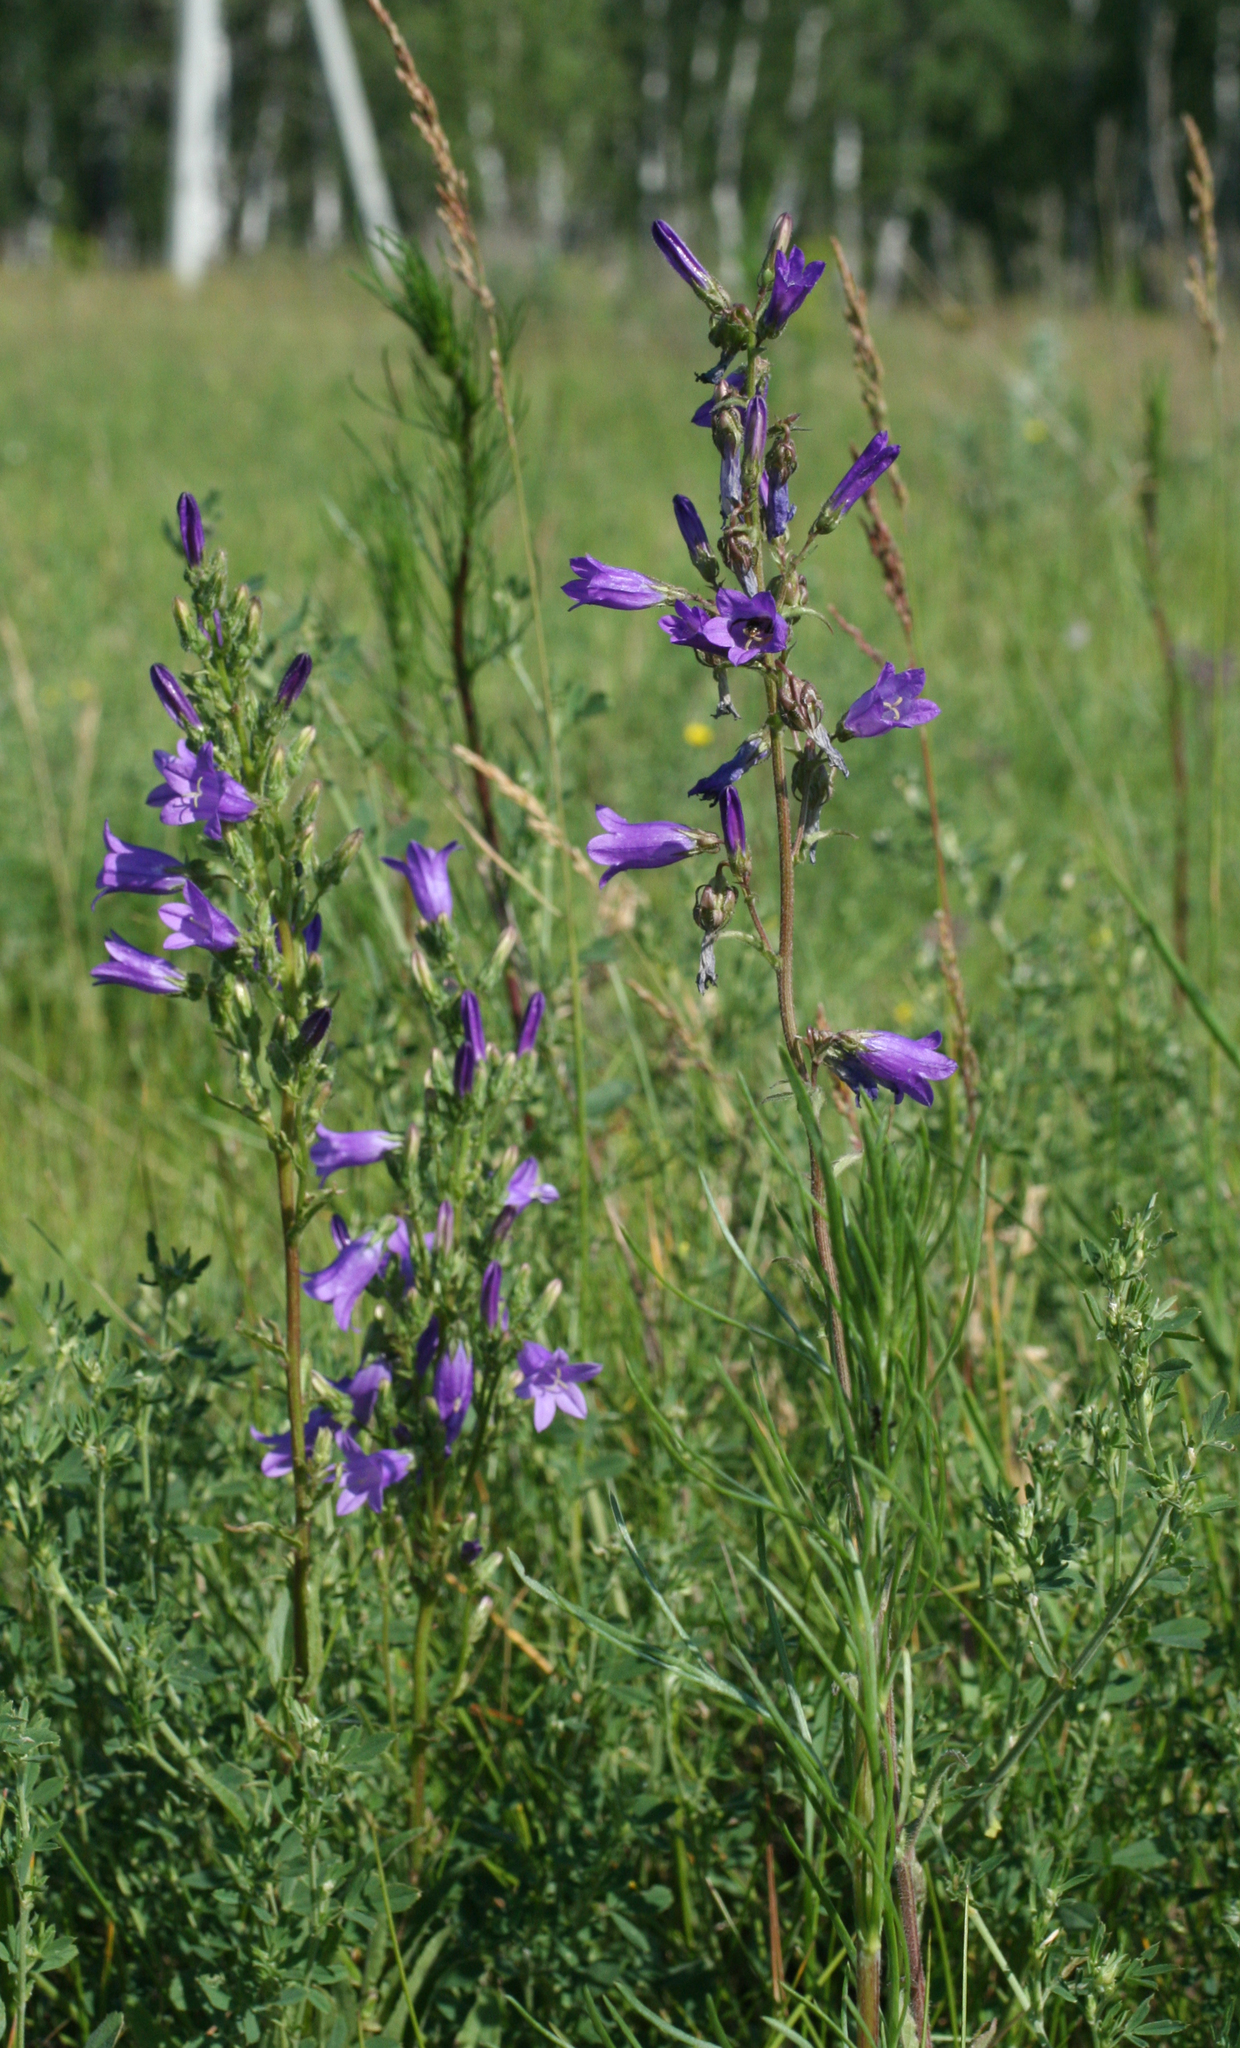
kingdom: Plantae
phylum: Tracheophyta
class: Magnoliopsida
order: Asterales
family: Campanulaceae
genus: Campanula
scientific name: Campanula sibirica
